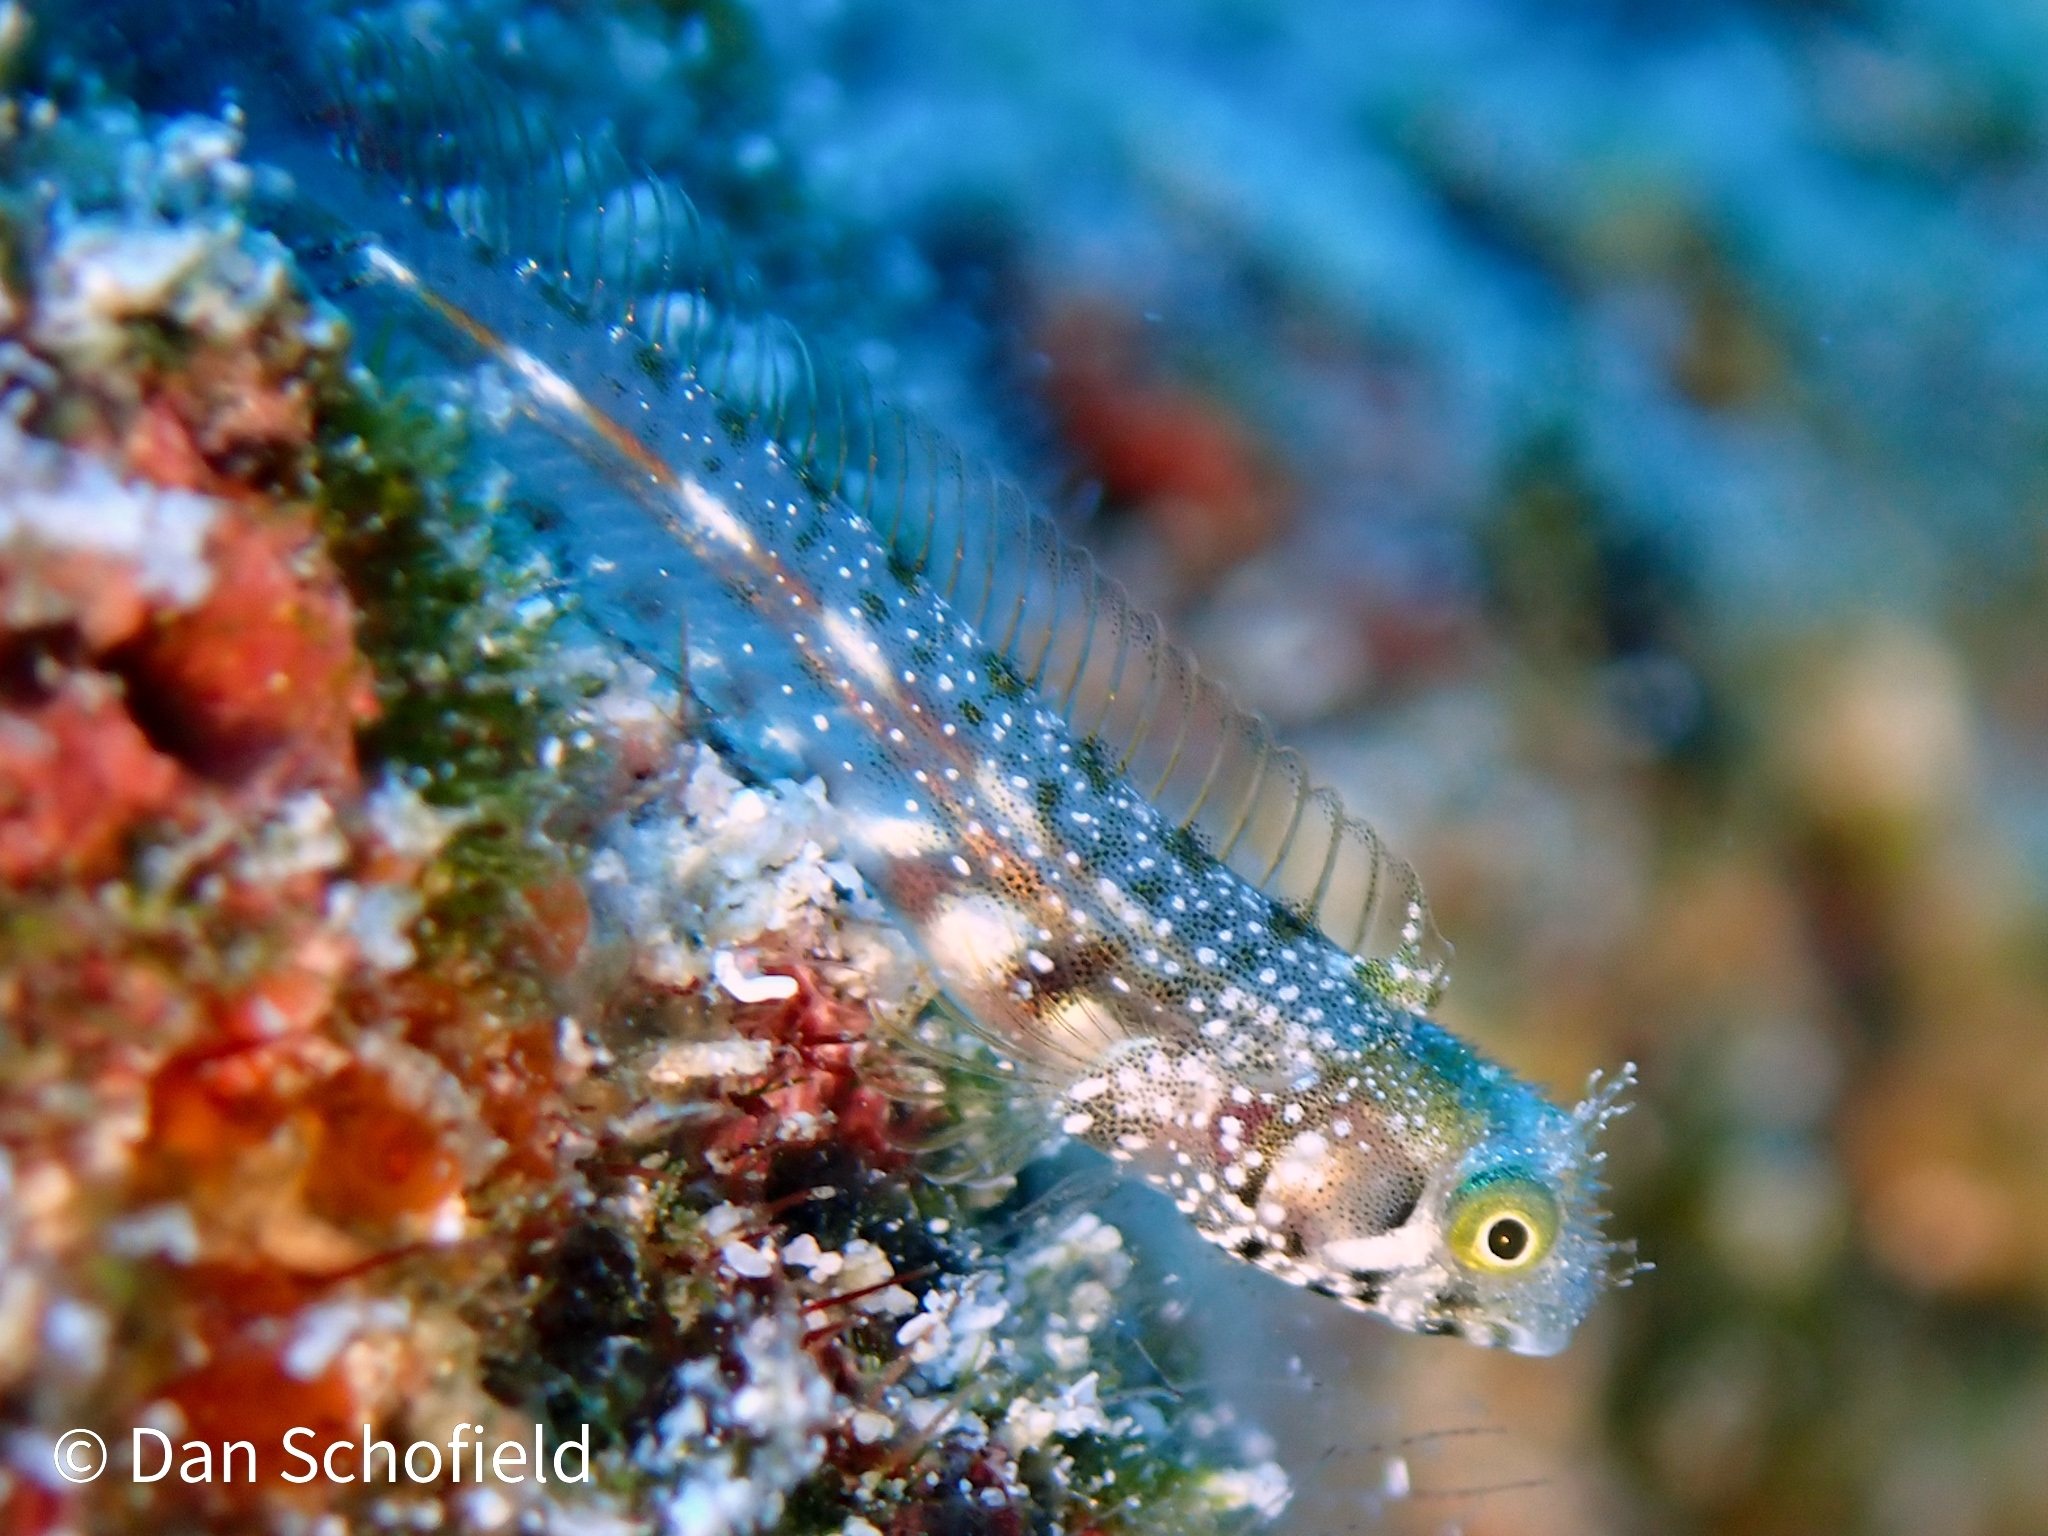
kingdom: Animalia
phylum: Chordata
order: Perciformes
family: Chaenopsidae
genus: Acanthemblemaria
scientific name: Acanthemblemaria spinosa
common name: Spinyhead blenny
